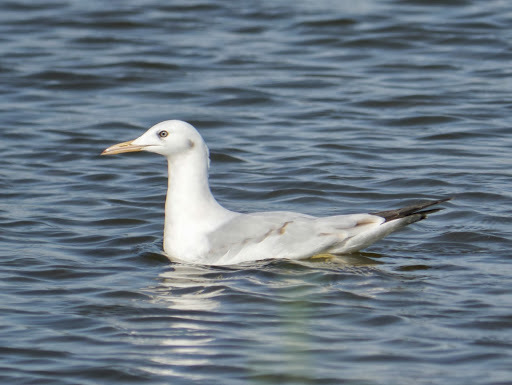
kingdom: Animalia
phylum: Chordata
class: Aves
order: Charadriiformes
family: Laridae
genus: Chroicocephalus
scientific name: Chroicocephalus genei
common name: Slender-billed gull
